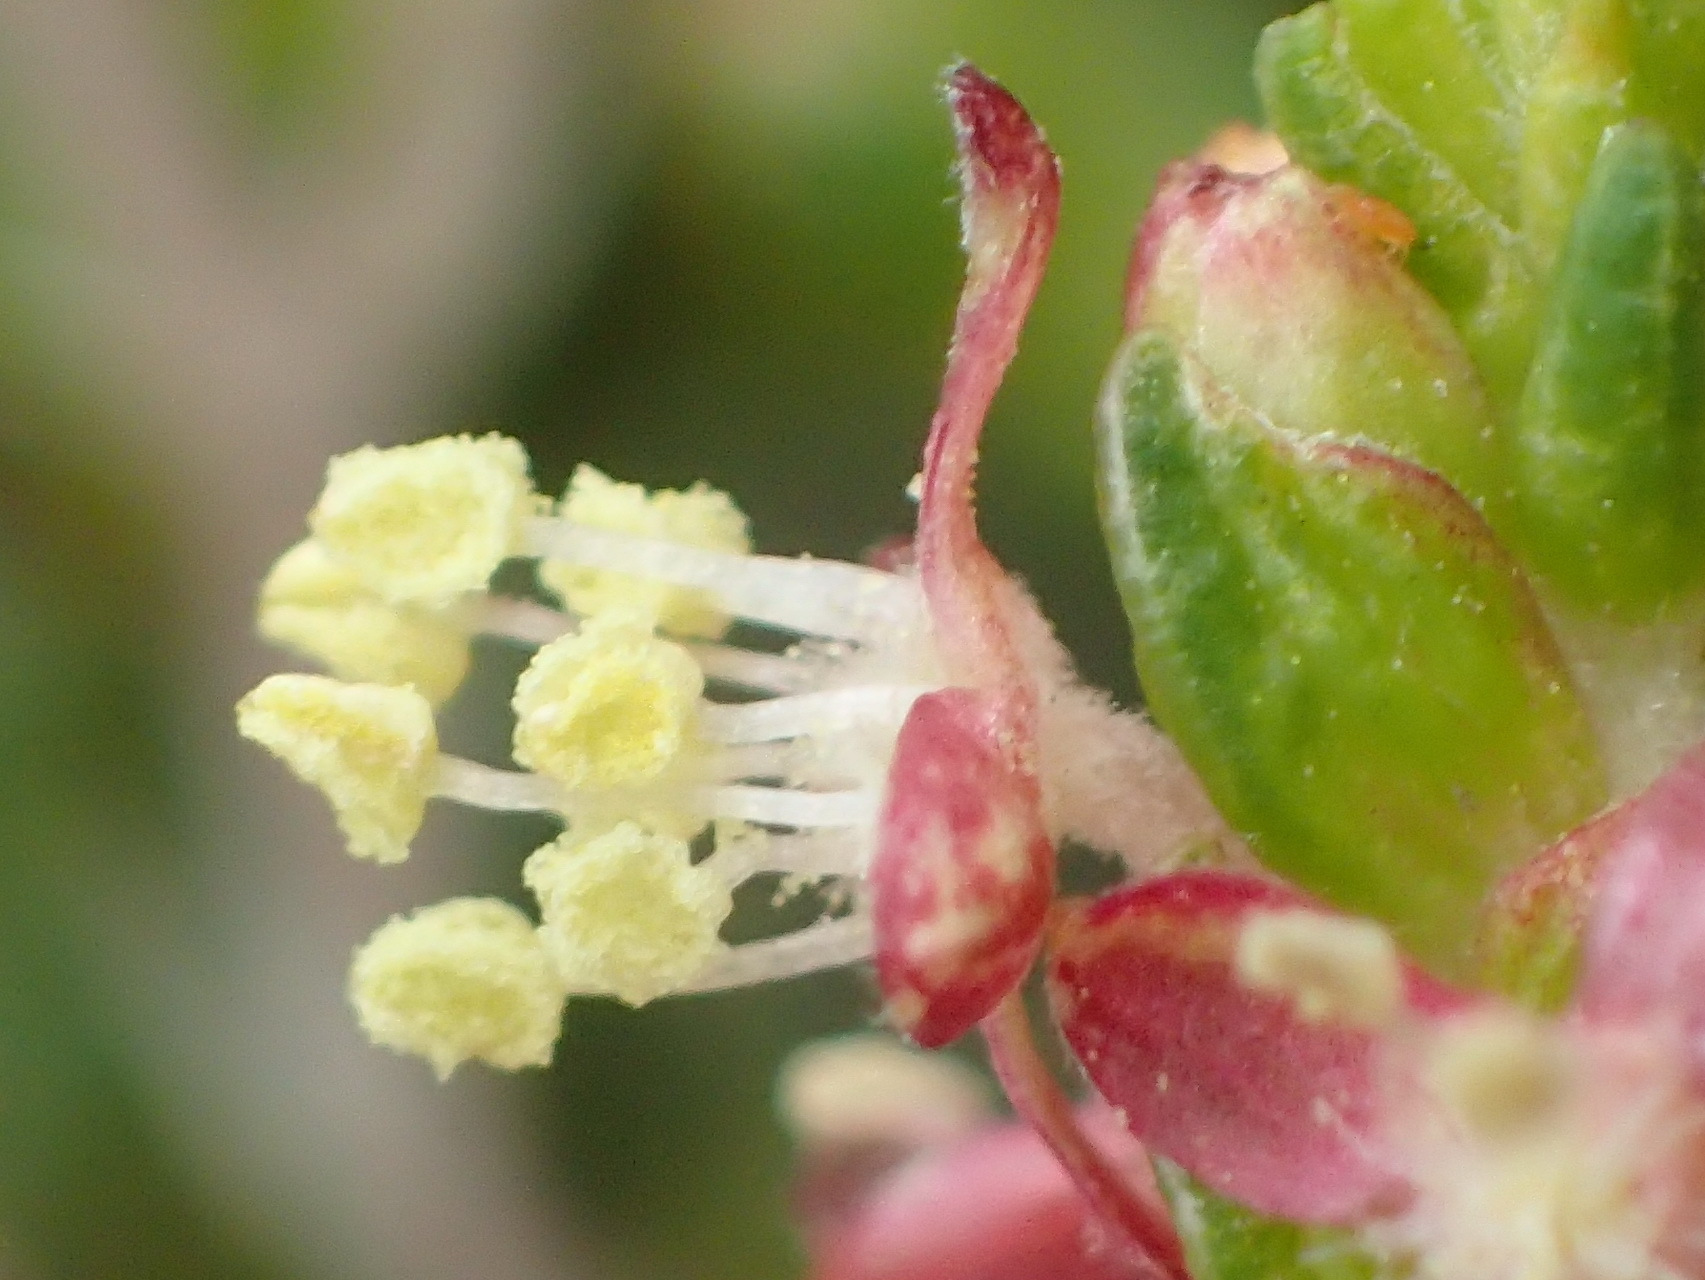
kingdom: Plantae
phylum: Tracheophyta
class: Magnoliopsida
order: Malvales
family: Thymelaeaceae
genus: Passerina
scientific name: Passerina rigida
